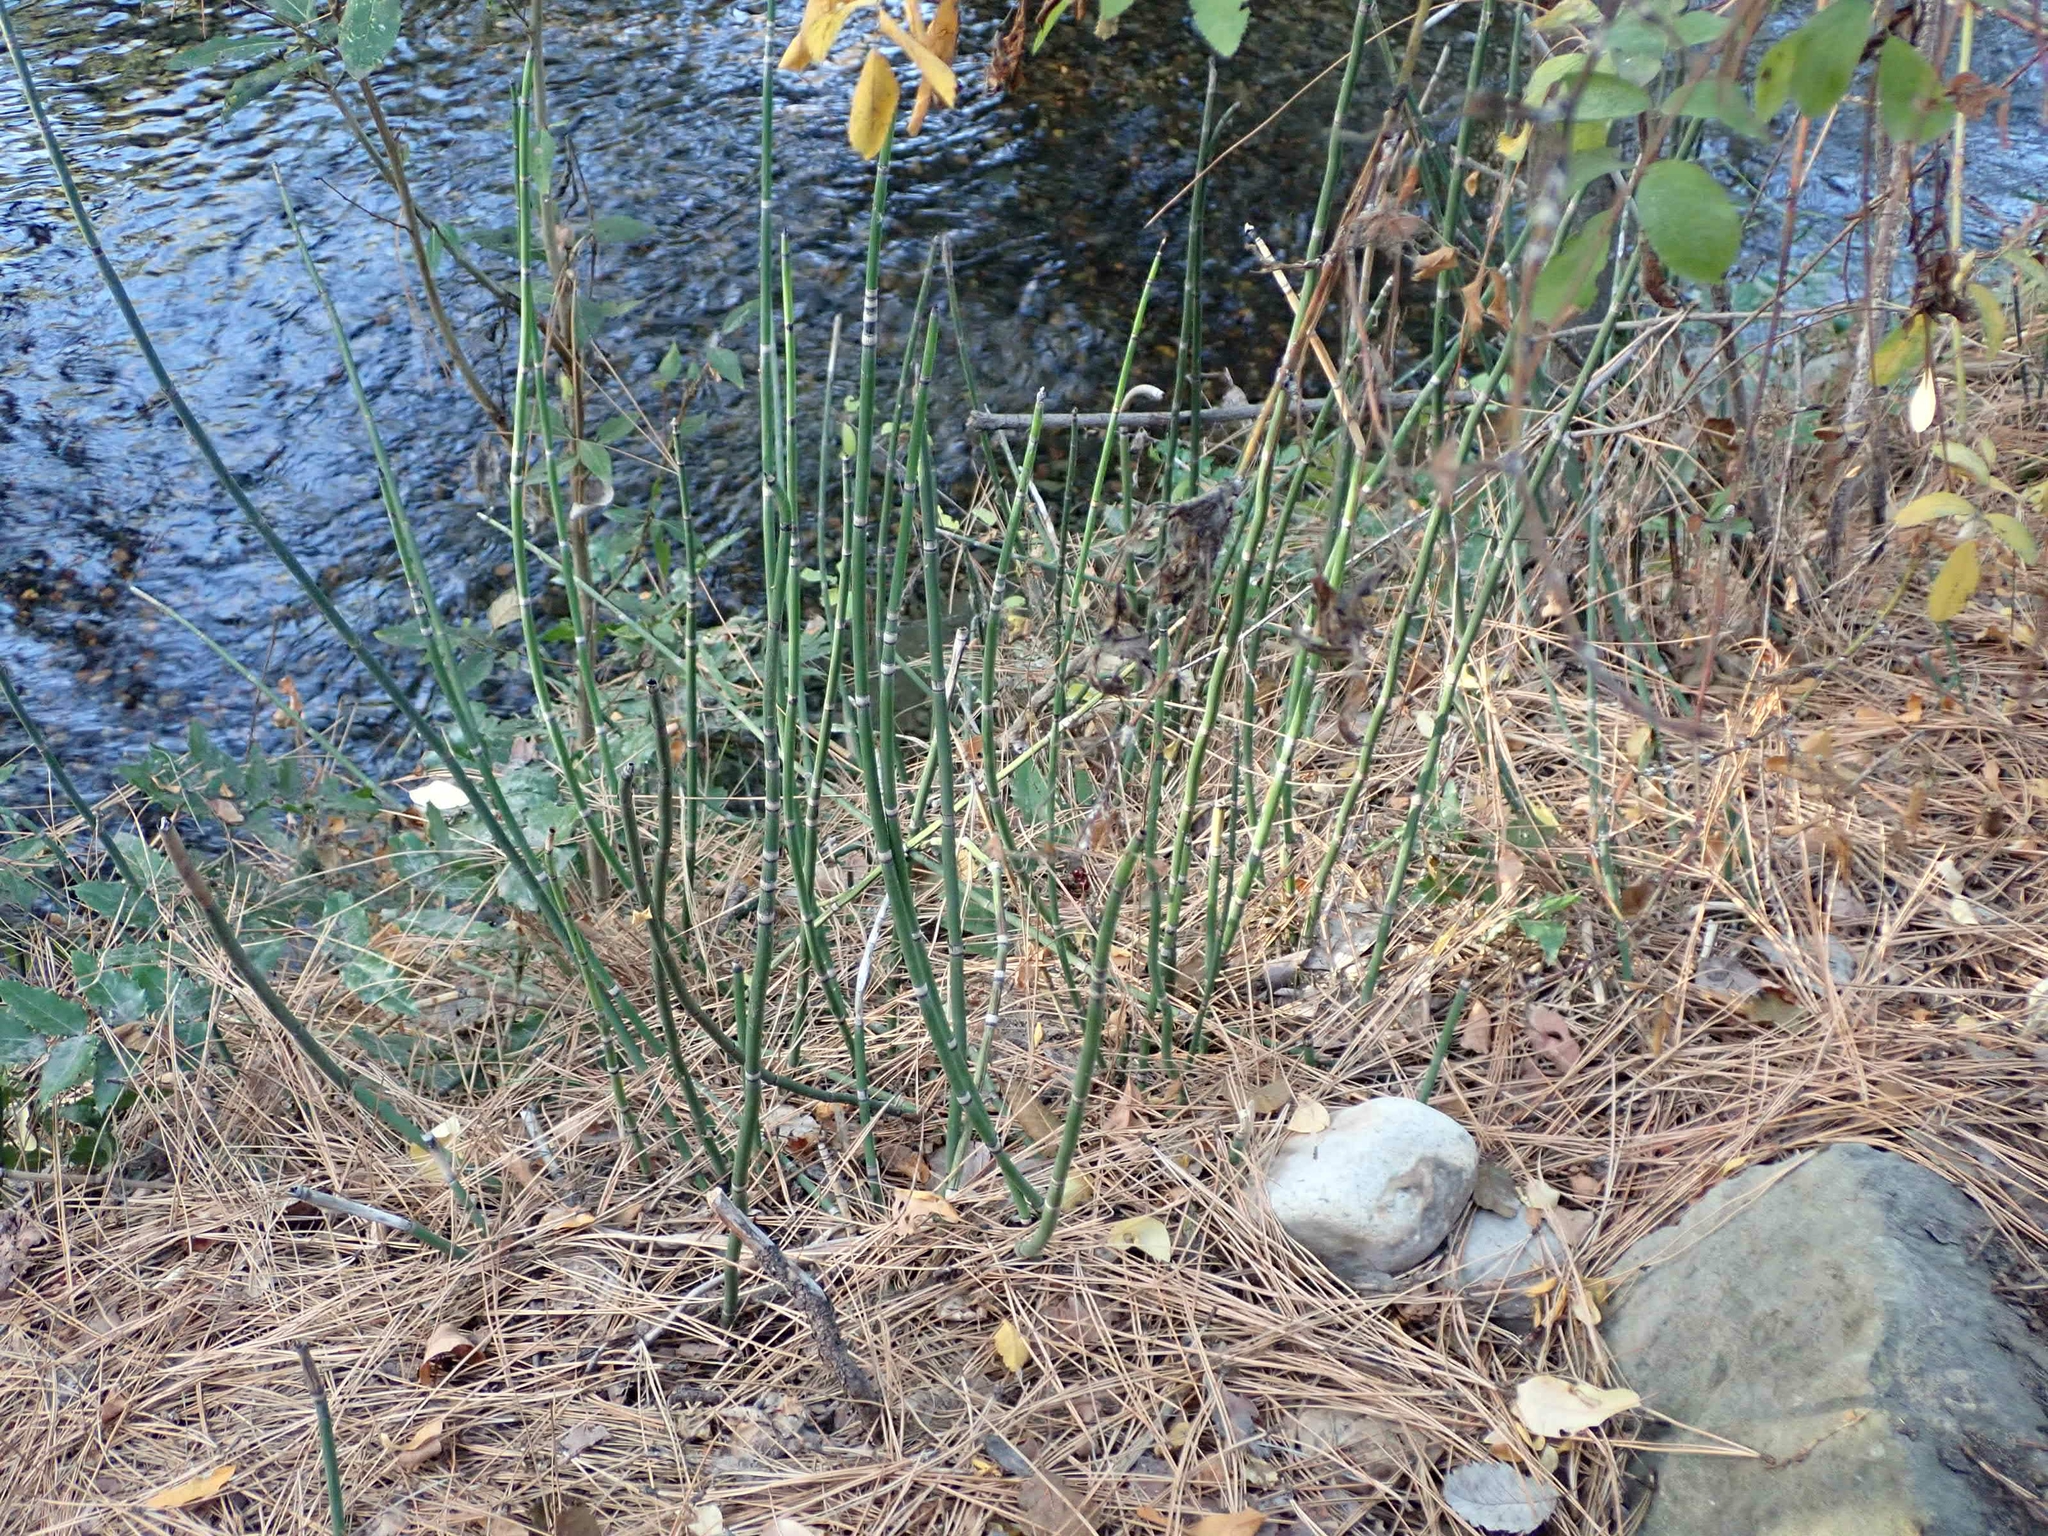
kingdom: Plantae
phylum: Tracheophyta
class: Polypodiopsida
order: Equisetales
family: Equisetaceae
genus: Equisetum
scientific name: Equisetum hyemale
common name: Rough horsetail
